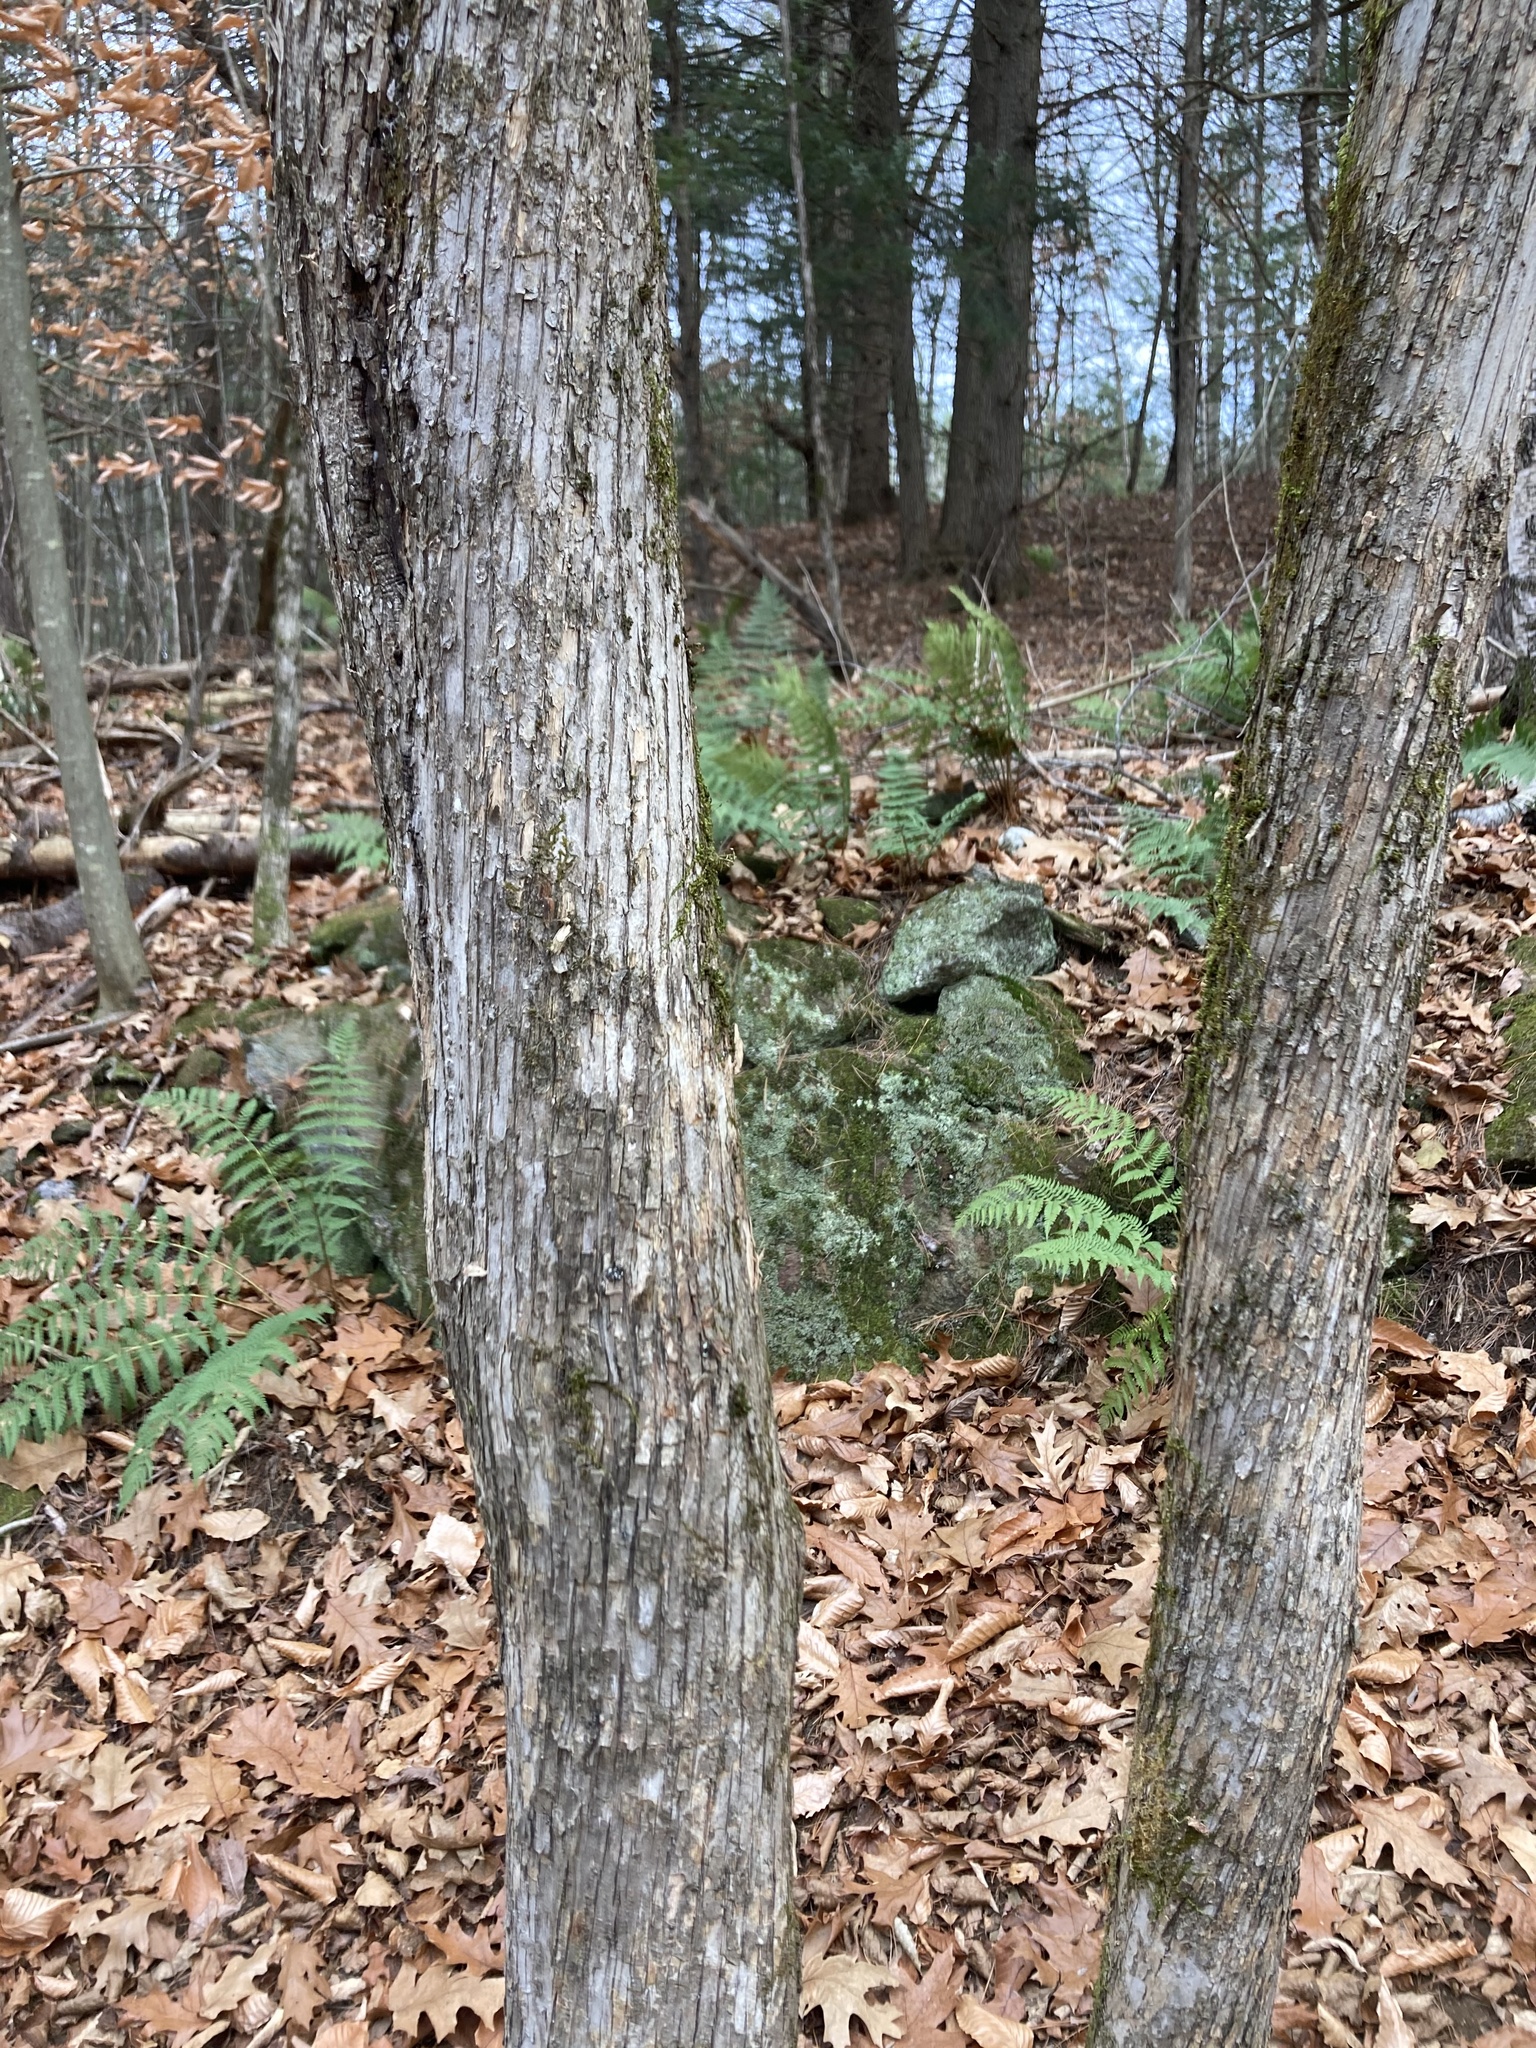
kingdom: Plantae
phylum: Tracheophyta
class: Magnoliopsida
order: Fagales
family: Betulaceae
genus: Ostrya
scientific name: Ostrya virginiana
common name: Ironwood
